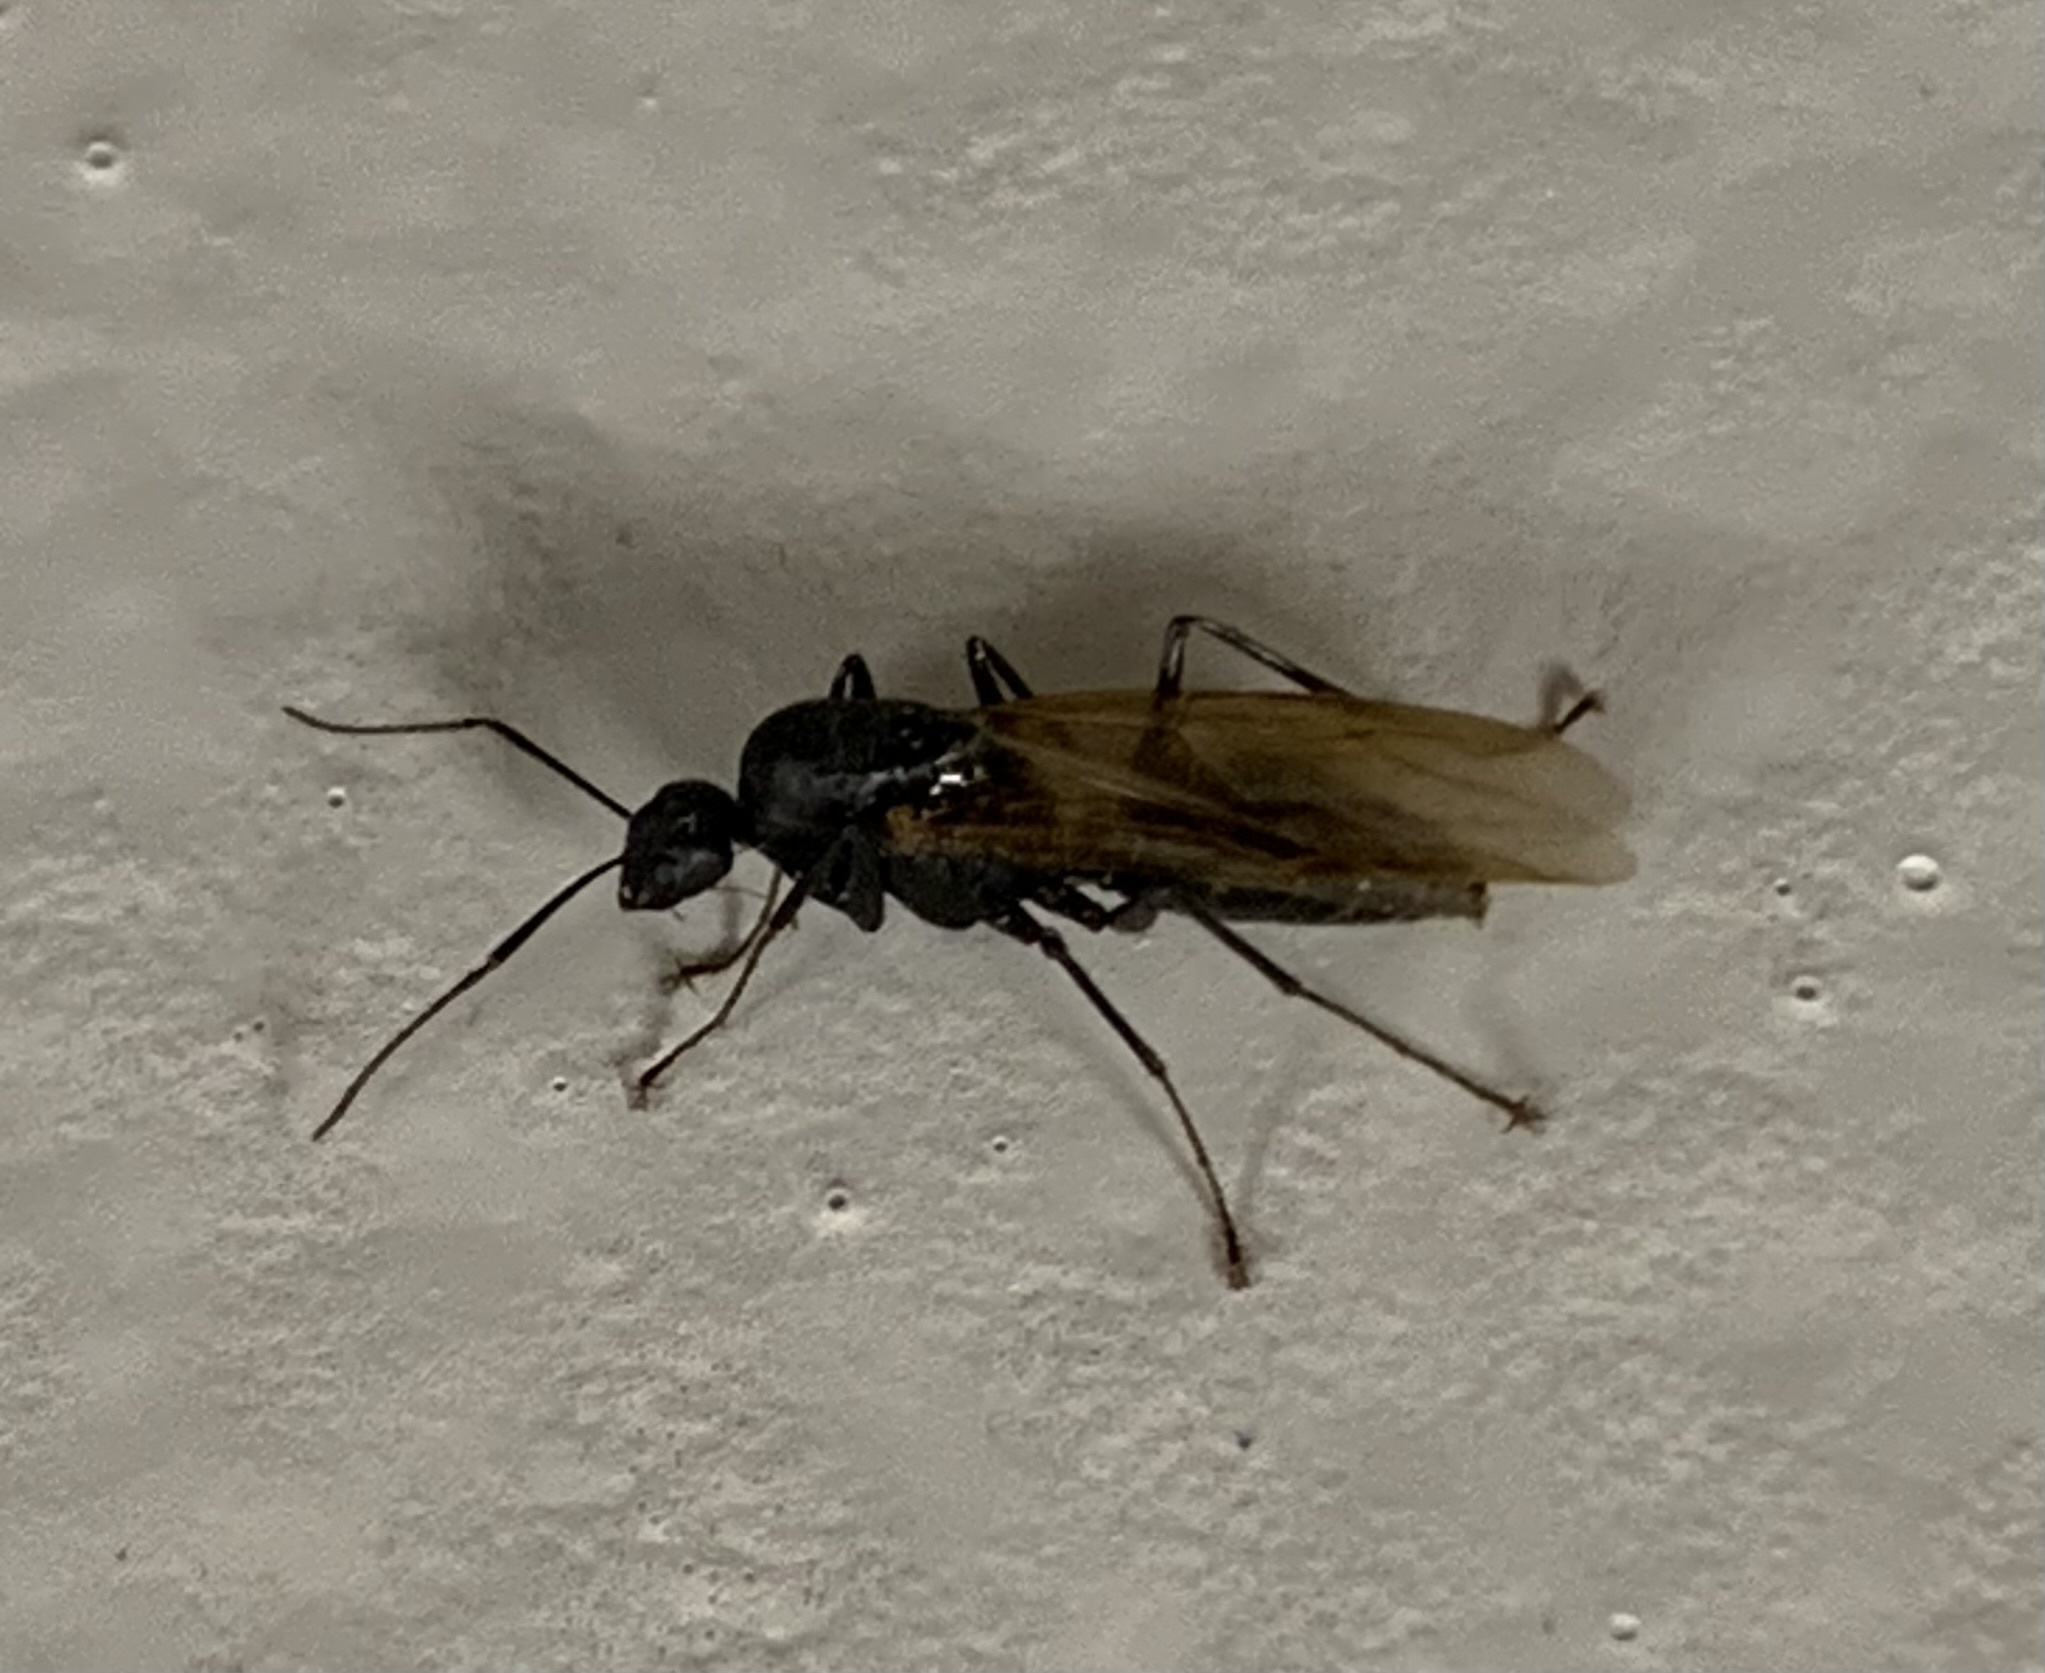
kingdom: Animalia
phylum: Arthropoda
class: Insecta
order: Hymenoptera
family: Formicidae
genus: Camponotus
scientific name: Camponotus pennsylvanicus
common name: Black carpenter ant
